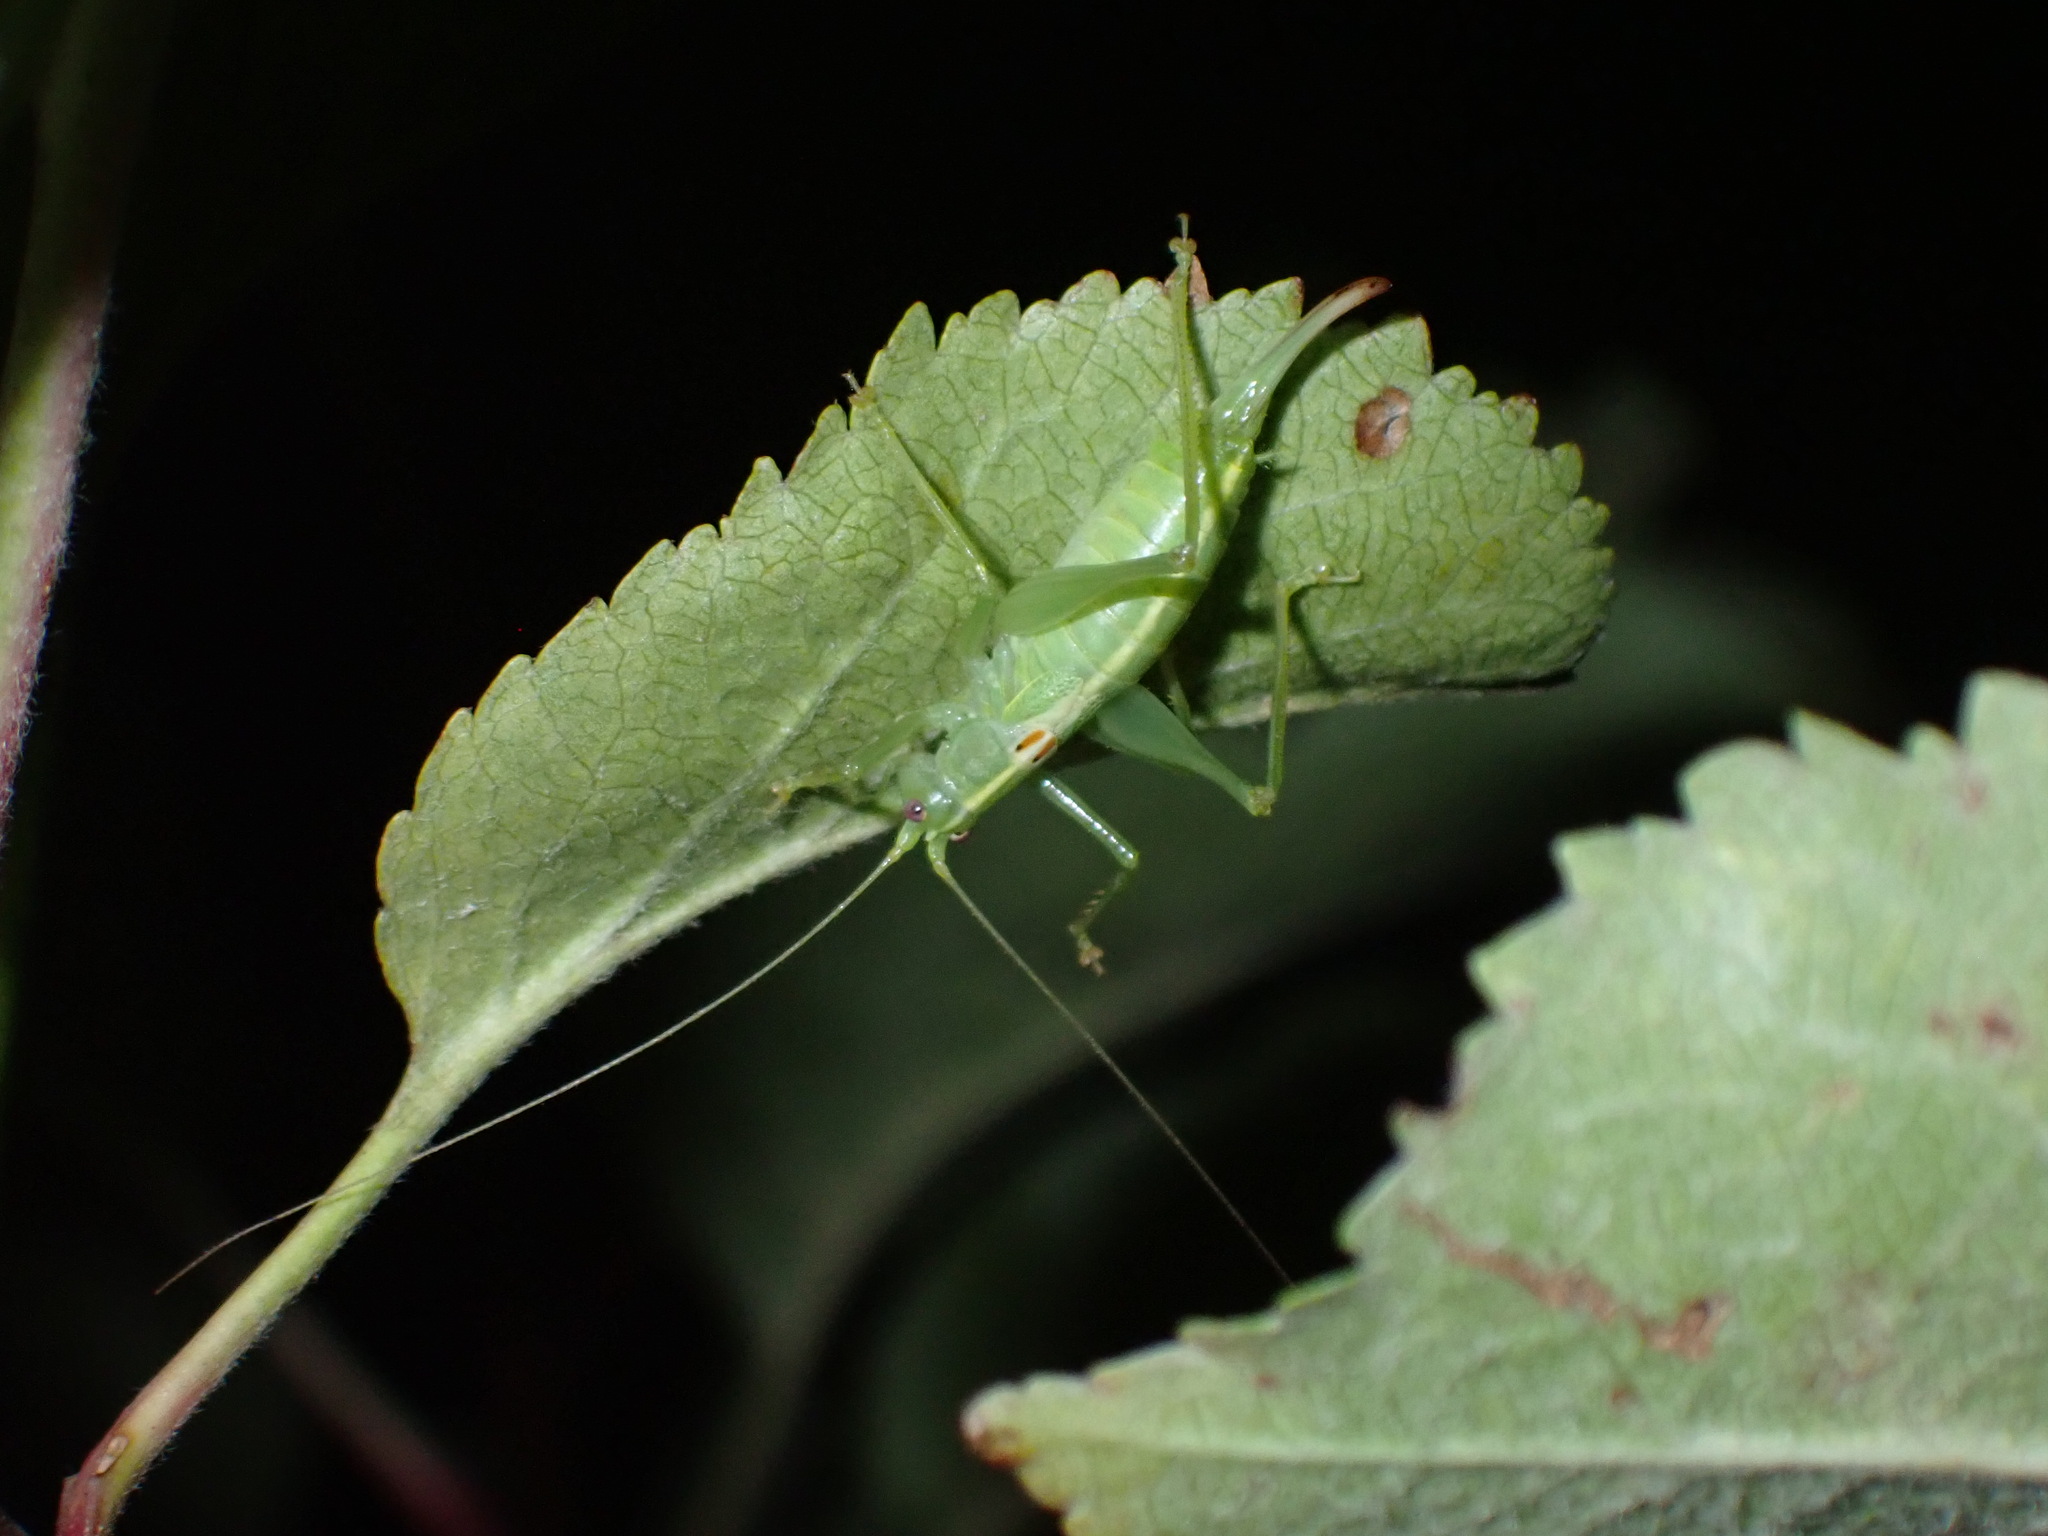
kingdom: Animalia
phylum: Arthropoda
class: Insecta
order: Orthoptera
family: Tettigoniidae
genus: Meconema
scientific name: Meconema meridionale
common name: Southern oak bush-cricket
